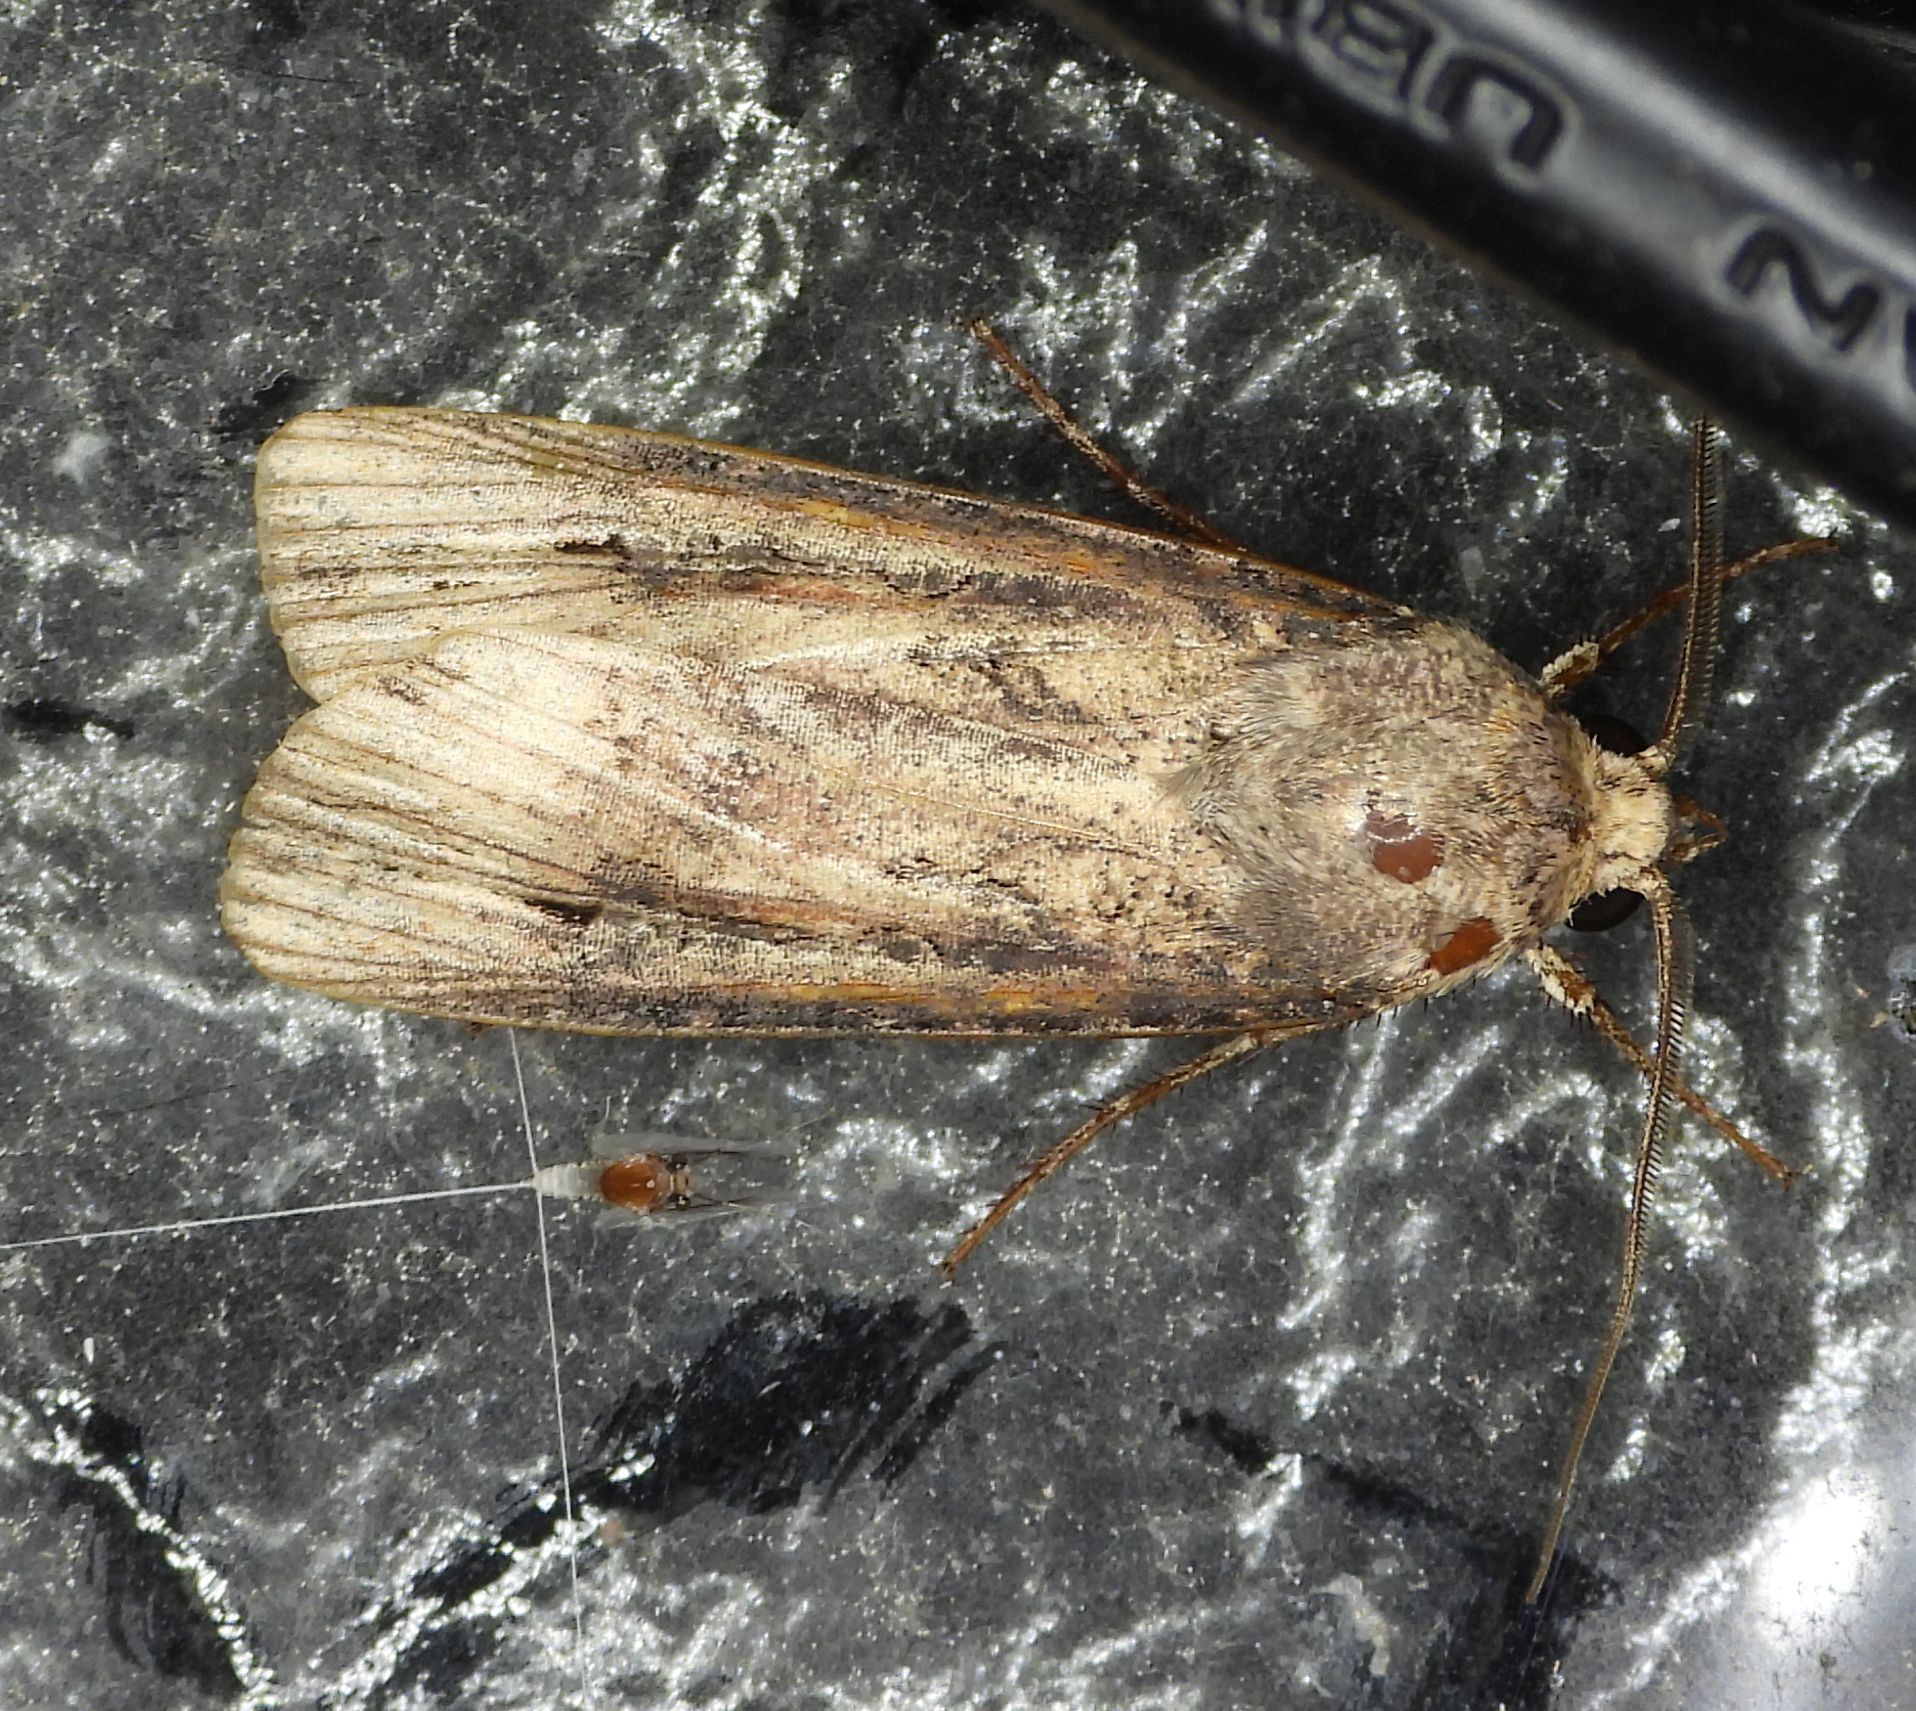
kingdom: Animalia
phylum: Arthropoda
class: Insecta
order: Lepidoptera
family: Noctuidae
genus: Agrotis
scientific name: Agrotis ipsilon
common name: Dark sword-grass
